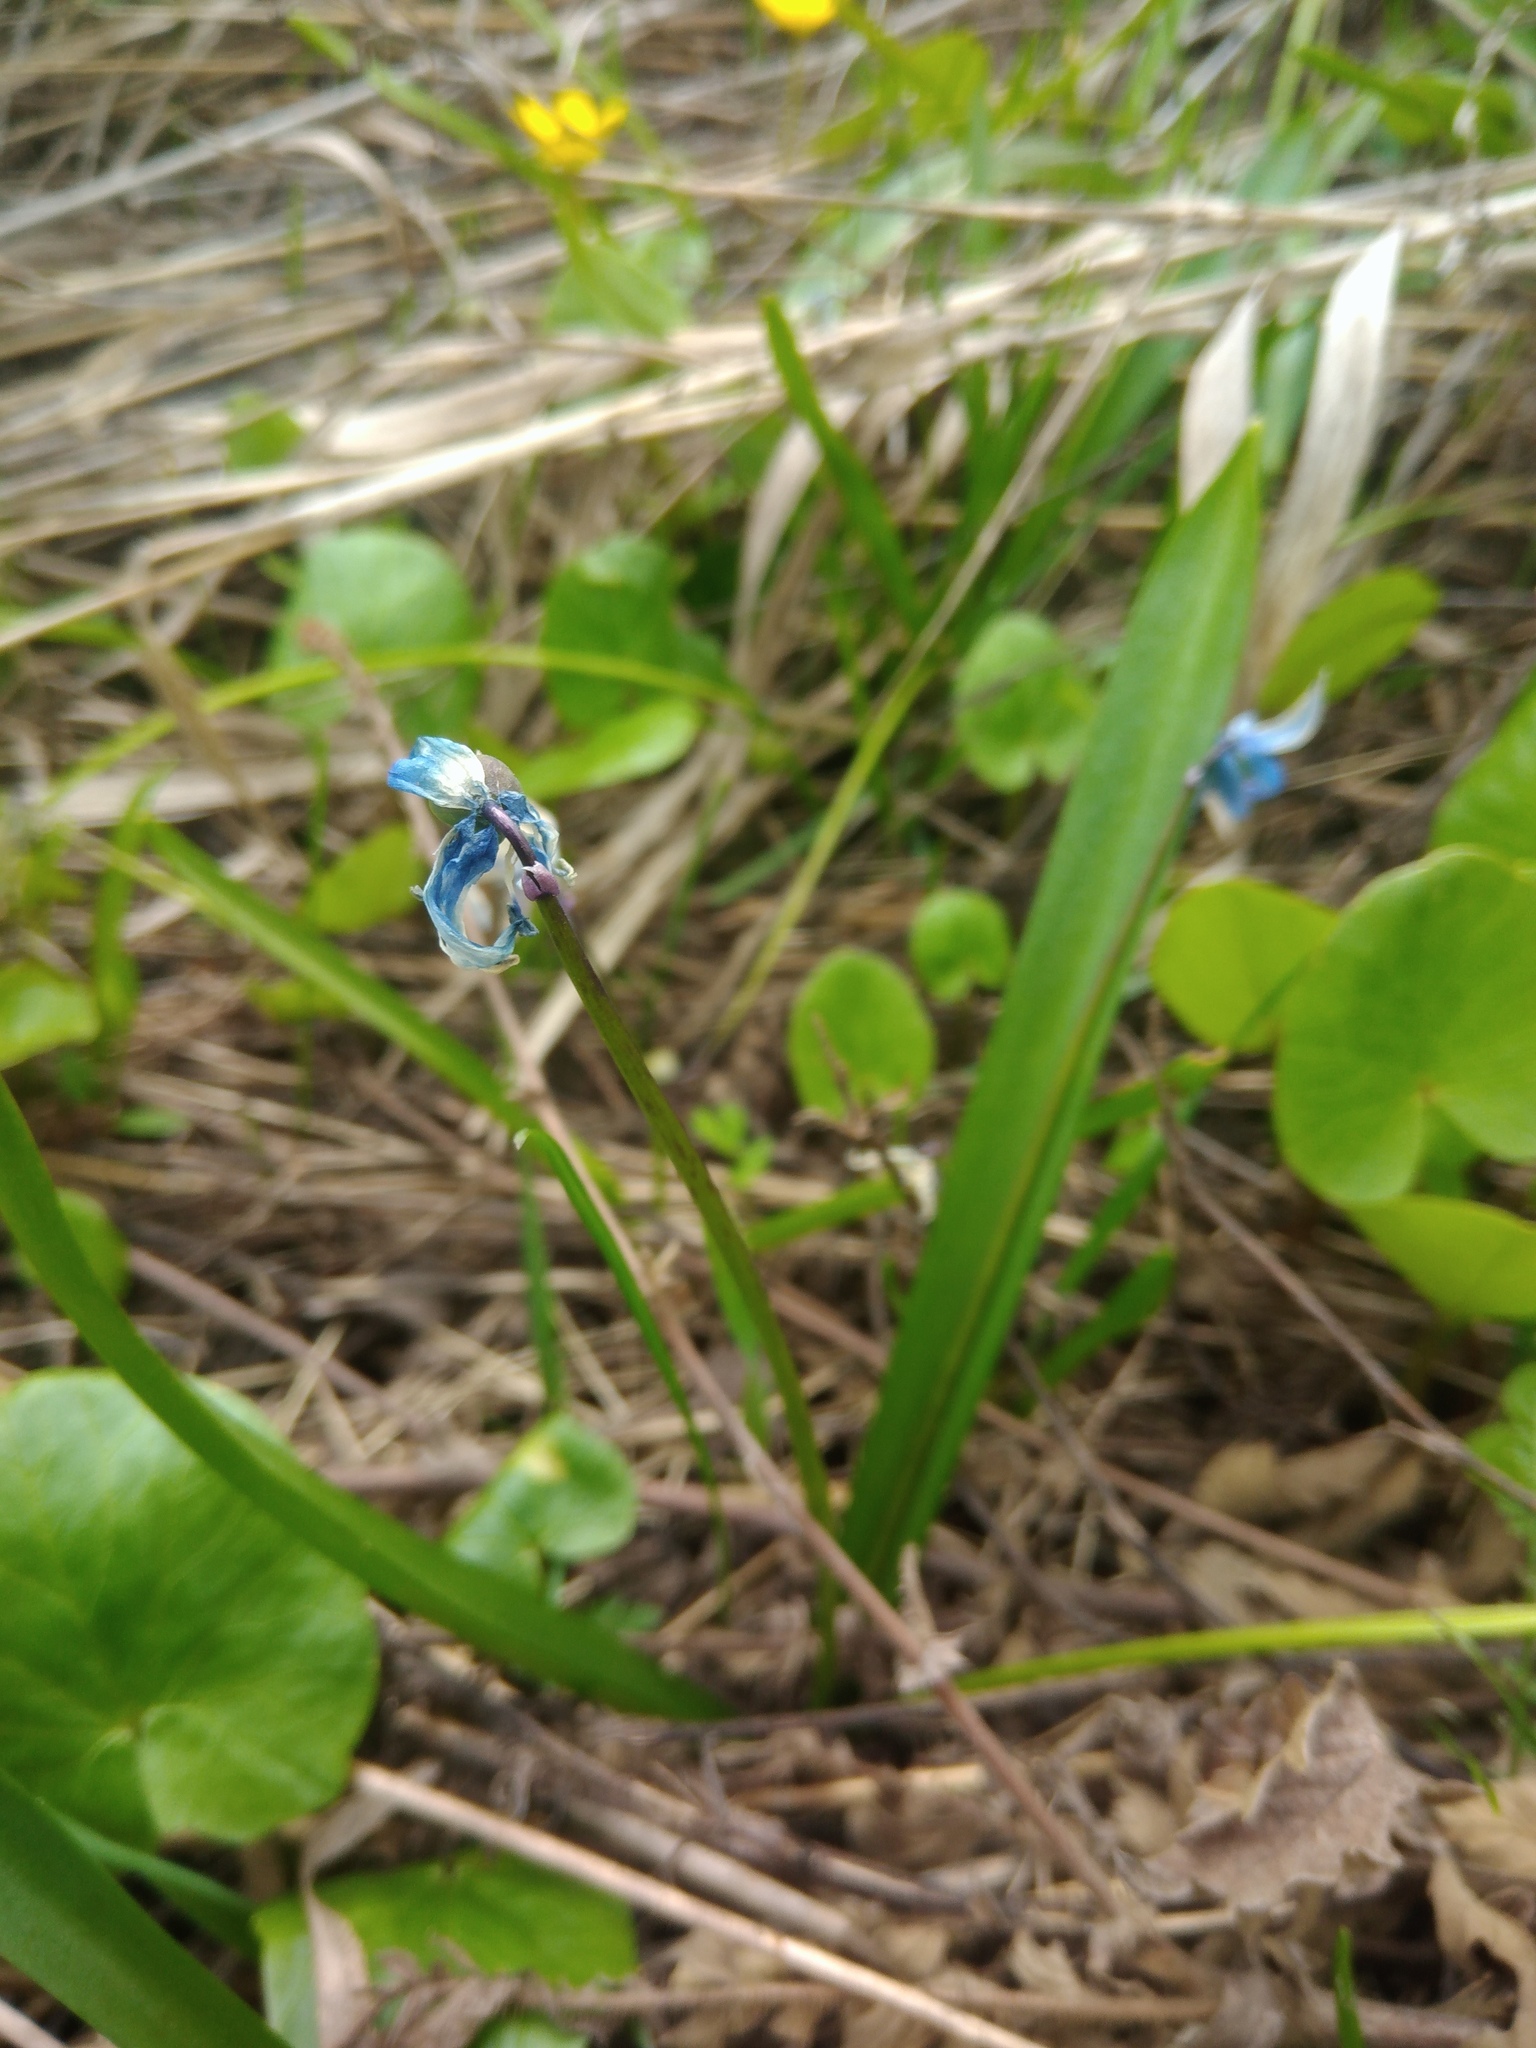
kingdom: Plantae
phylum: Tracheophyta
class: Liliopsida
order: Asparagales
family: Asparagaceae
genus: Scilla
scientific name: Scilla siberica
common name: Siberian squill
